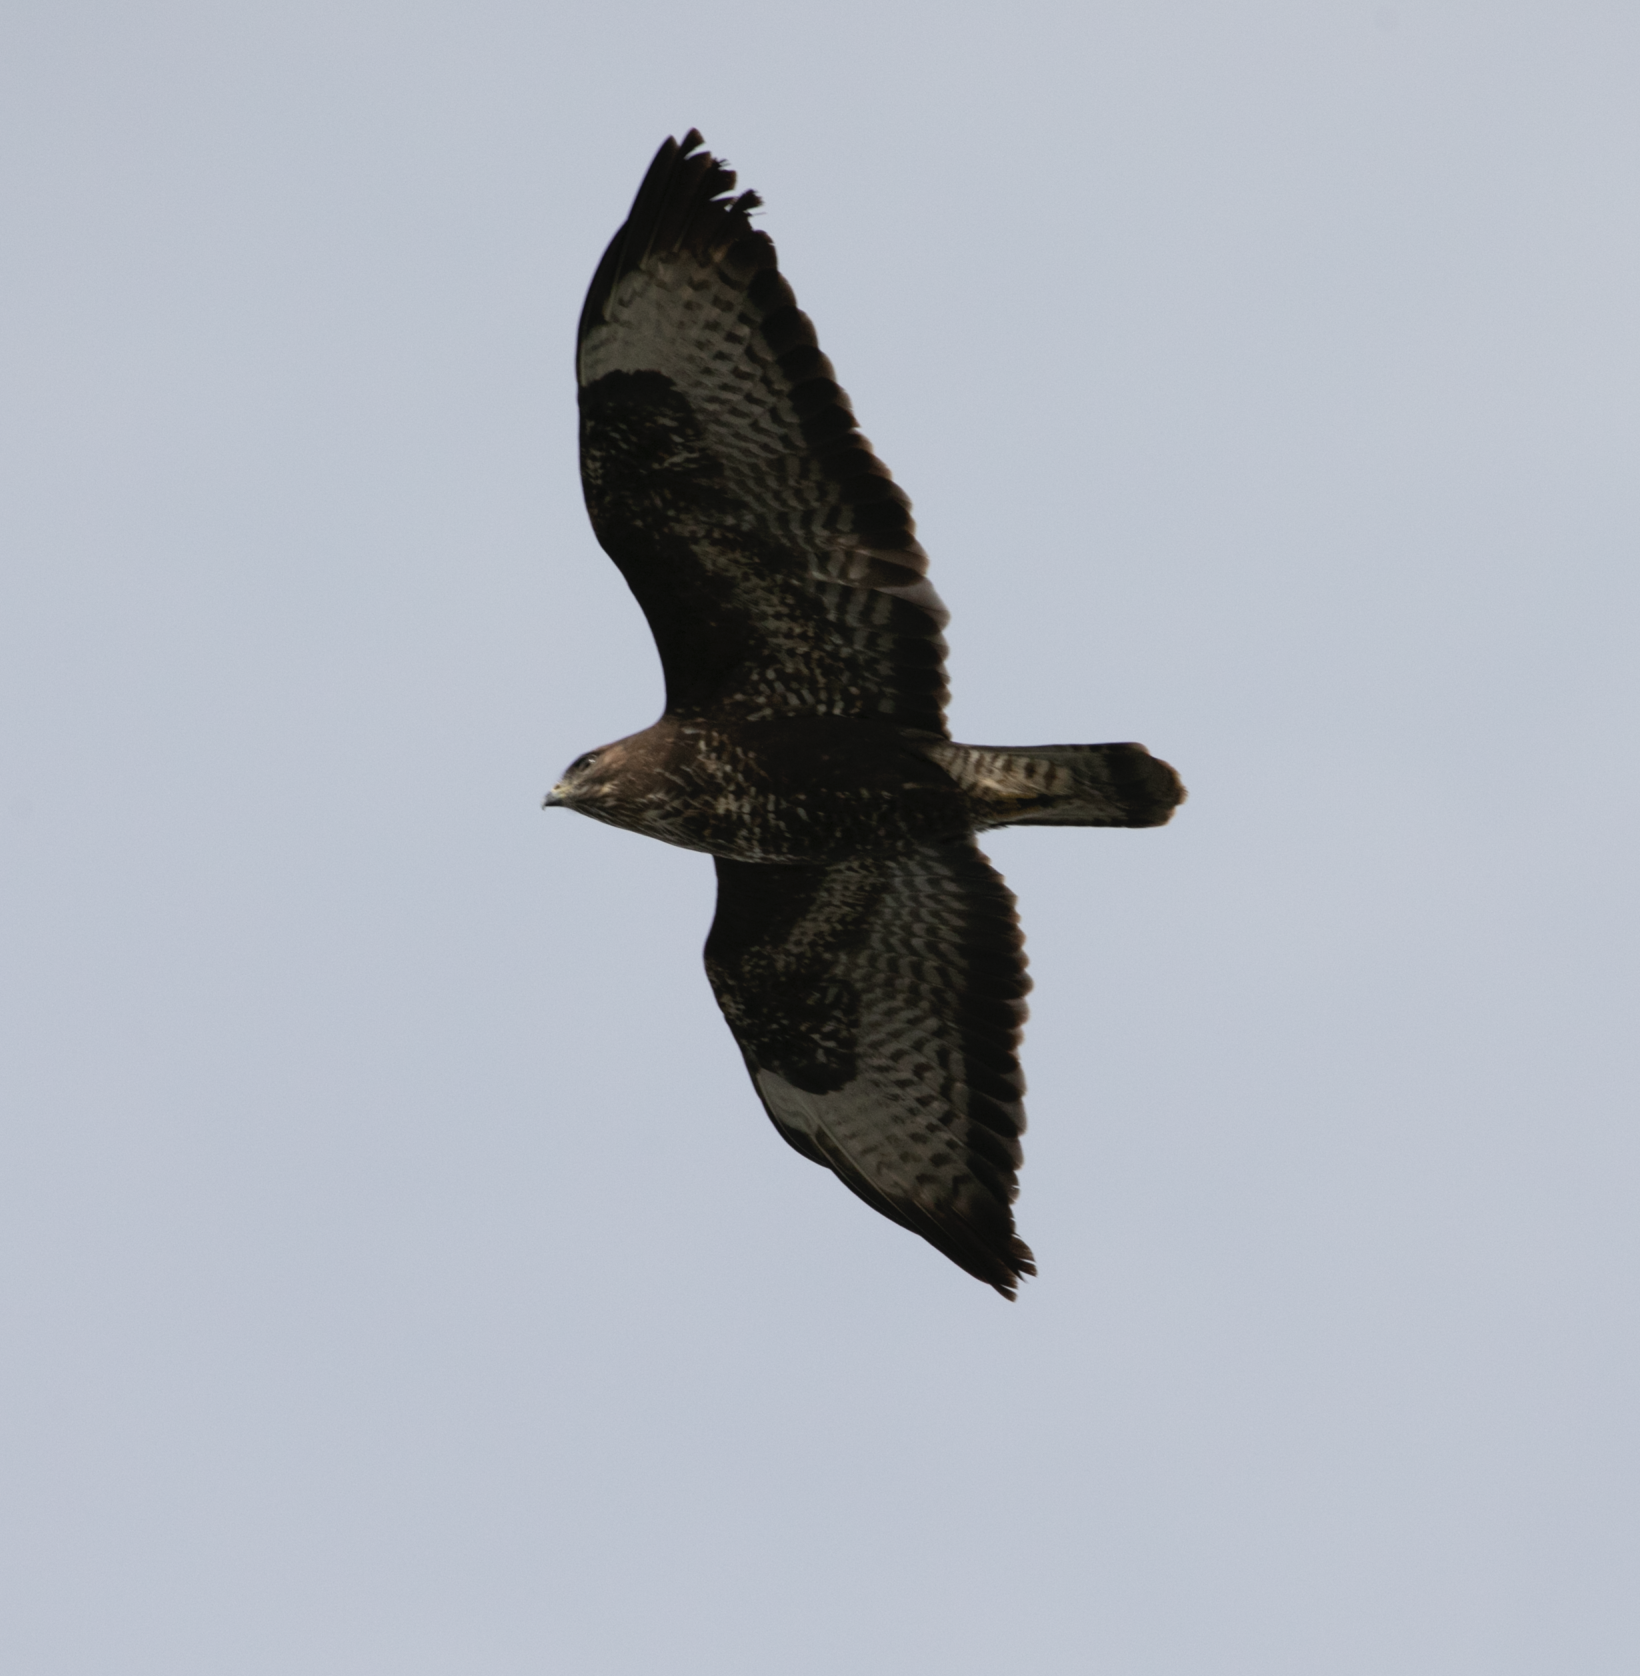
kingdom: Animalia
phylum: Chordata
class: Aves
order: Accipitriformes
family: Accipitridae
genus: Buteo
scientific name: Buteo buteo
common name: Common buzzard
